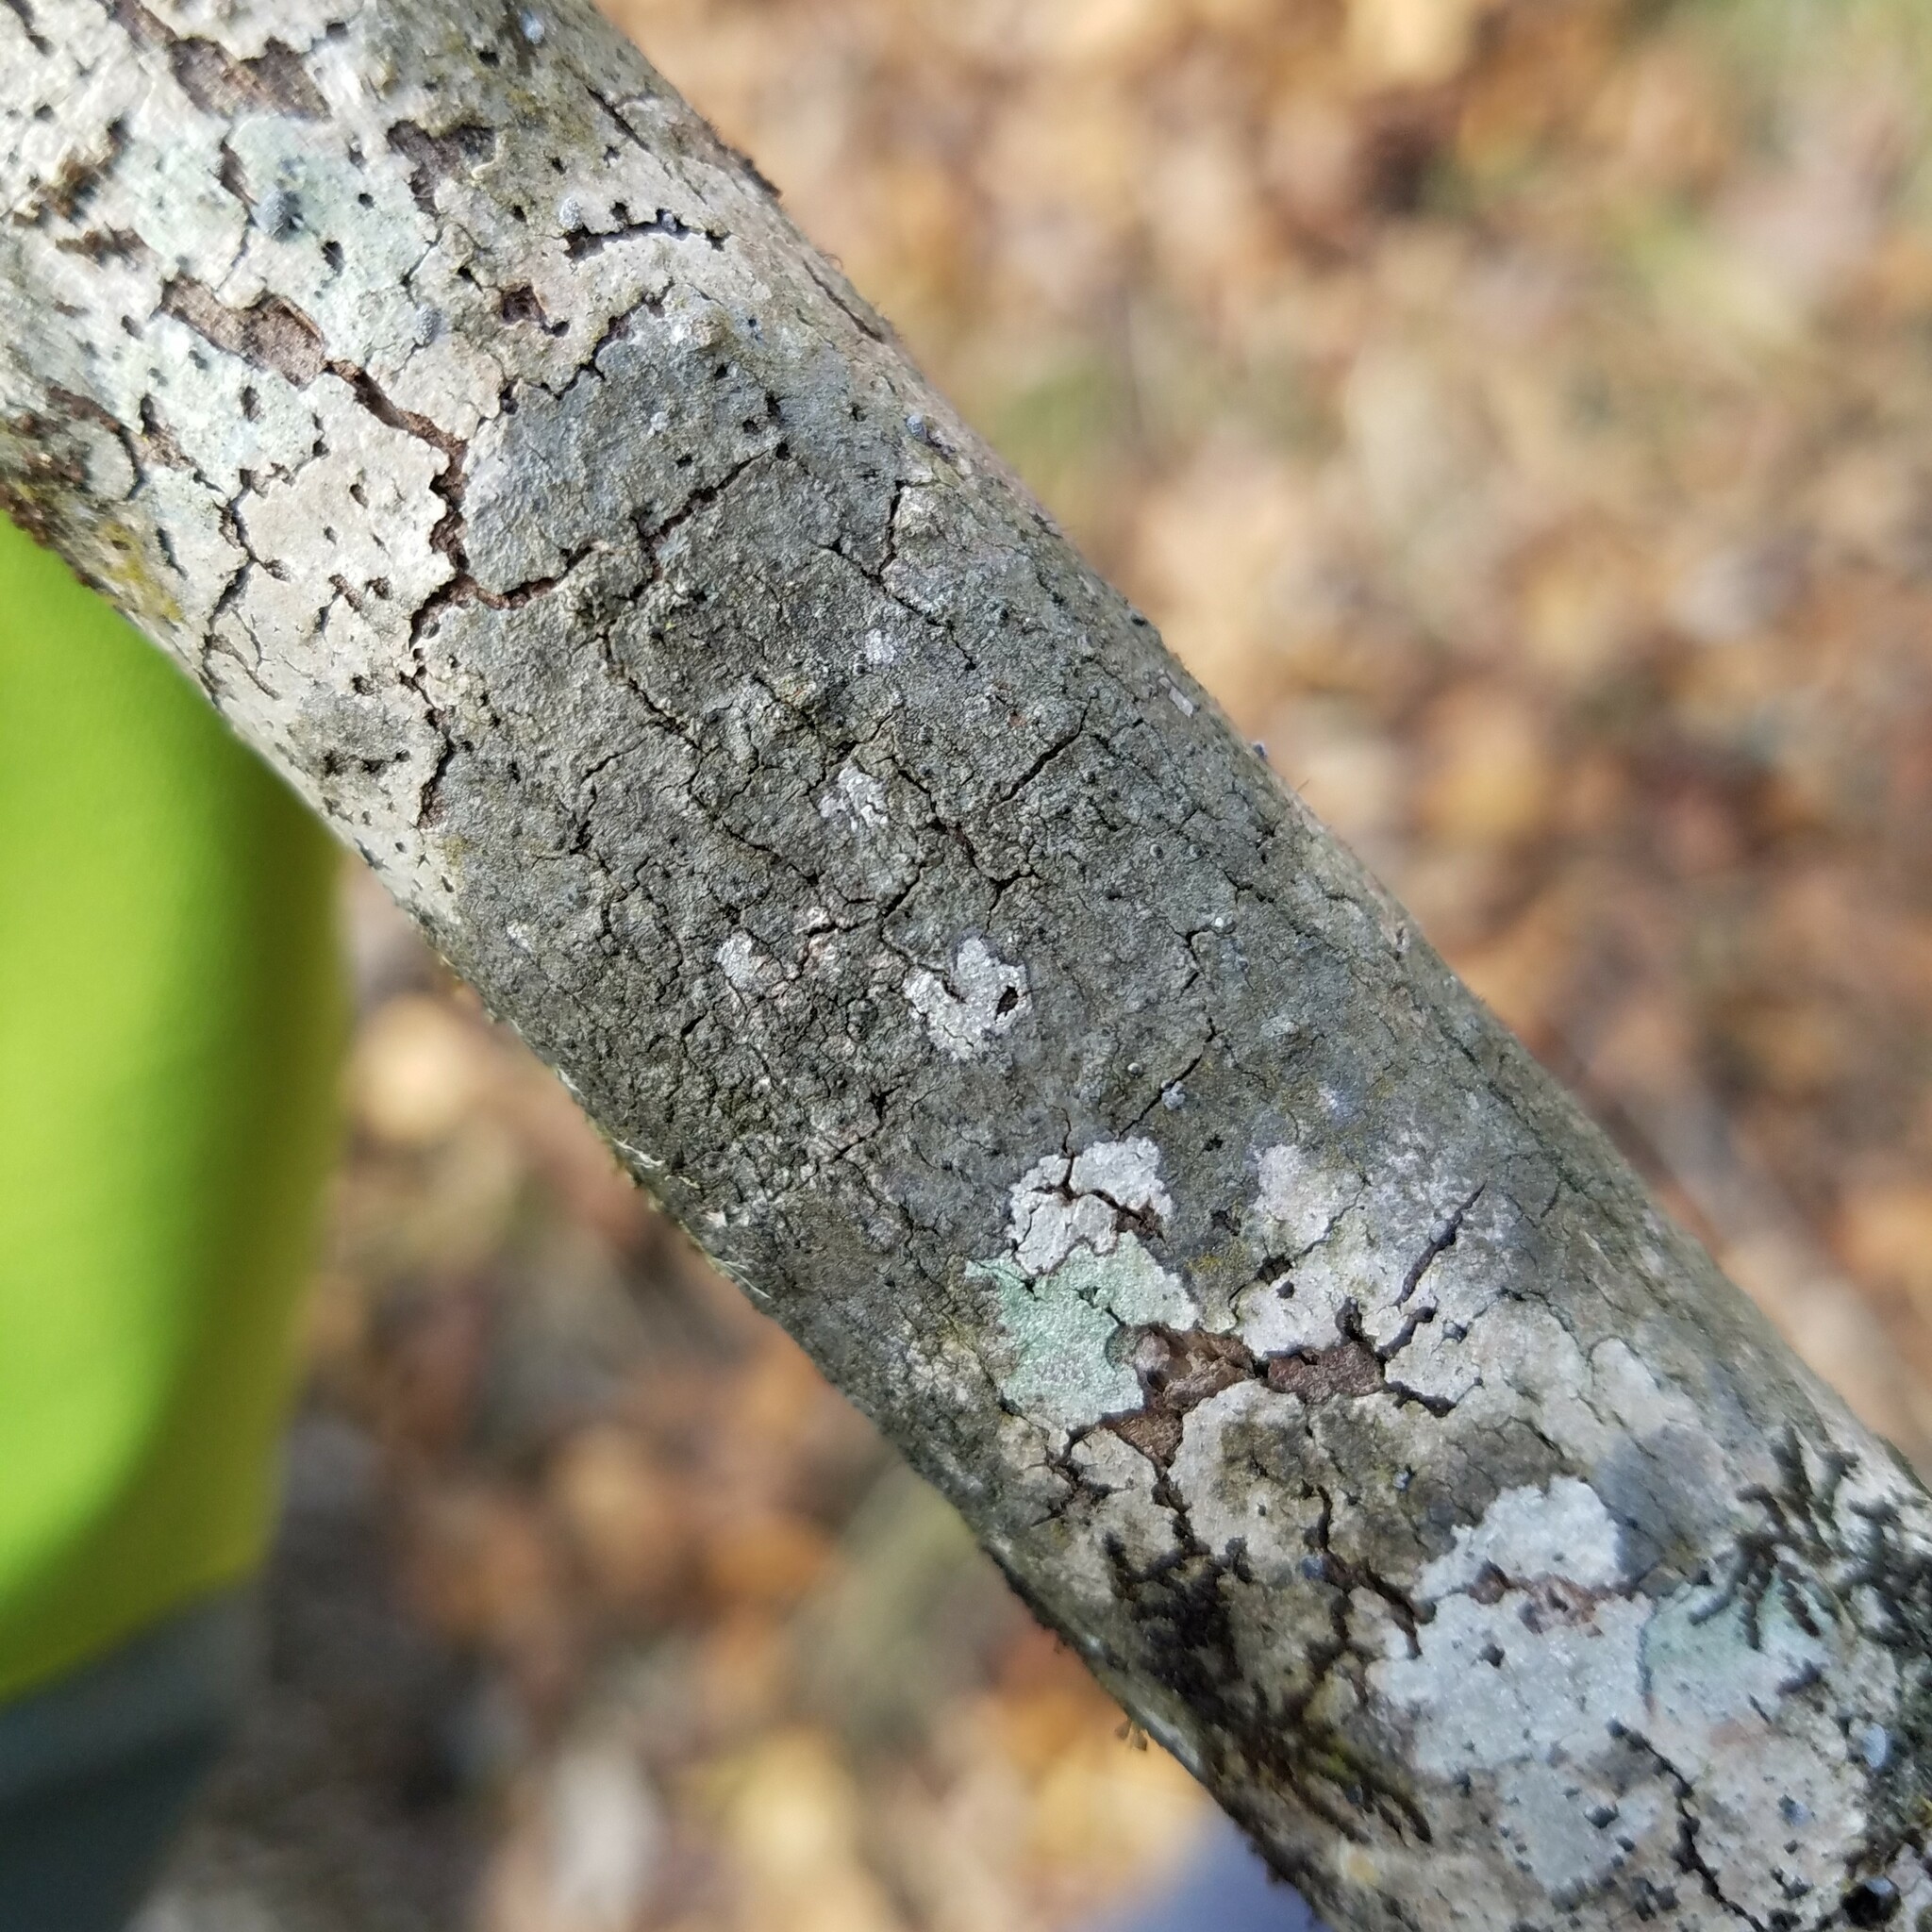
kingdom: Fungi
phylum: Ascomycota
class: Lecanoromycetes
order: Ostropales
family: Porinaceae
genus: Pseudosagedia
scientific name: Pseudosagedia cestrensis
